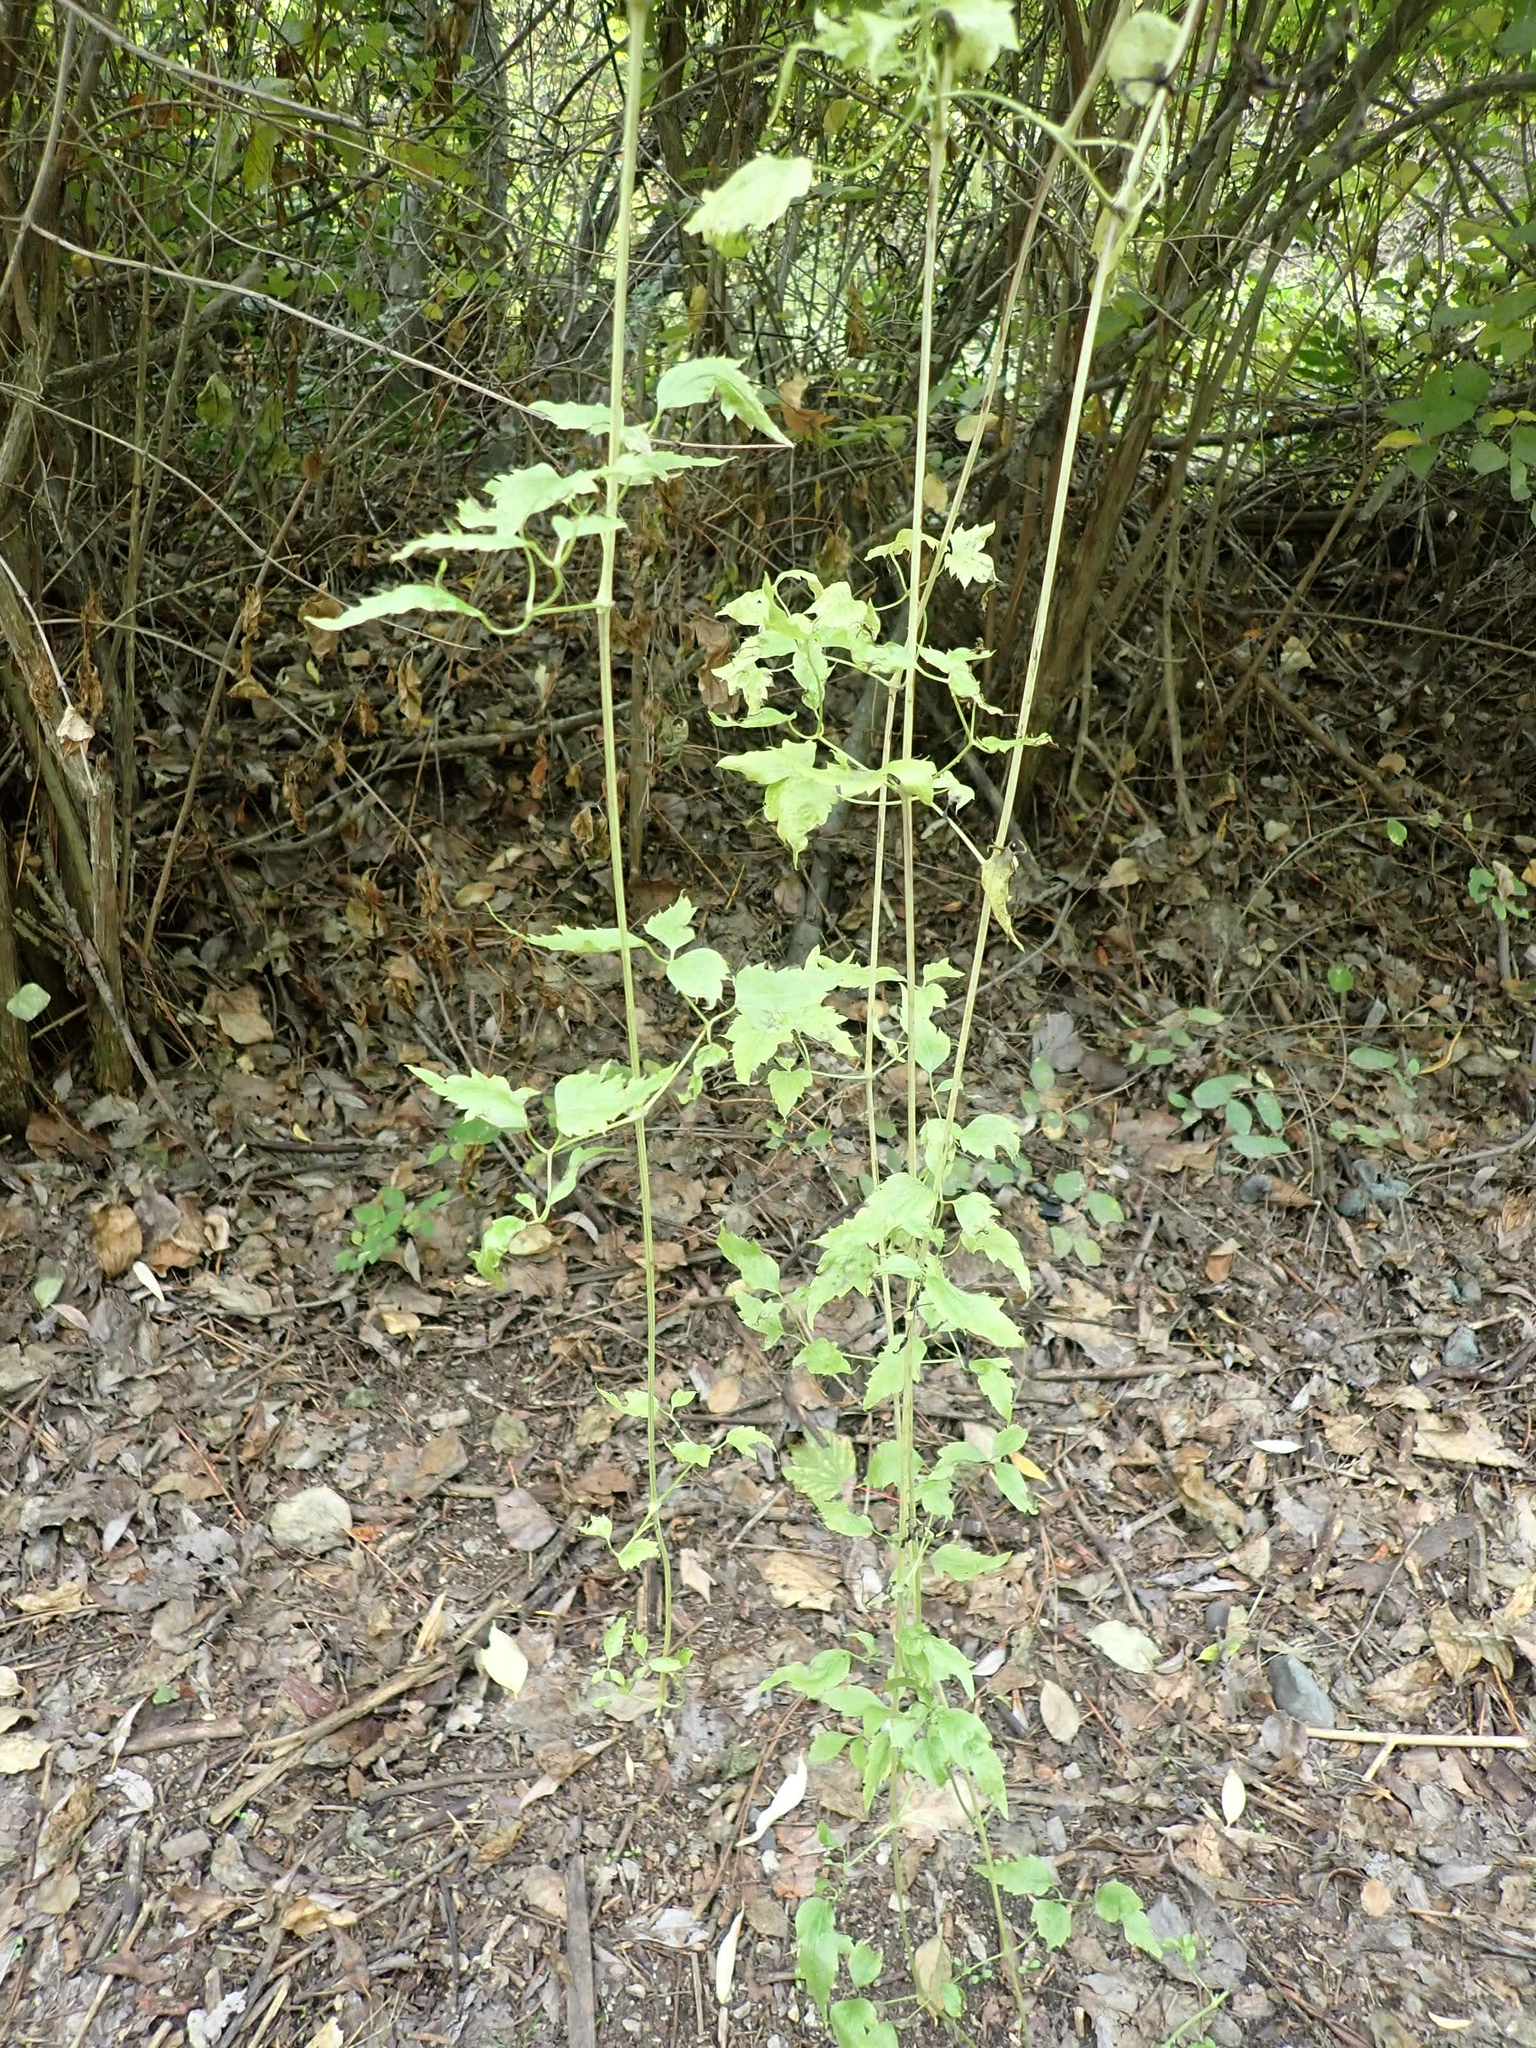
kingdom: Plantae
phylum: Tracheophyta
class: Magnoliopsida
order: Ranunculales
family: Ranunculaceae
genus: Clematis
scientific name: Clematis ligusticifolia
